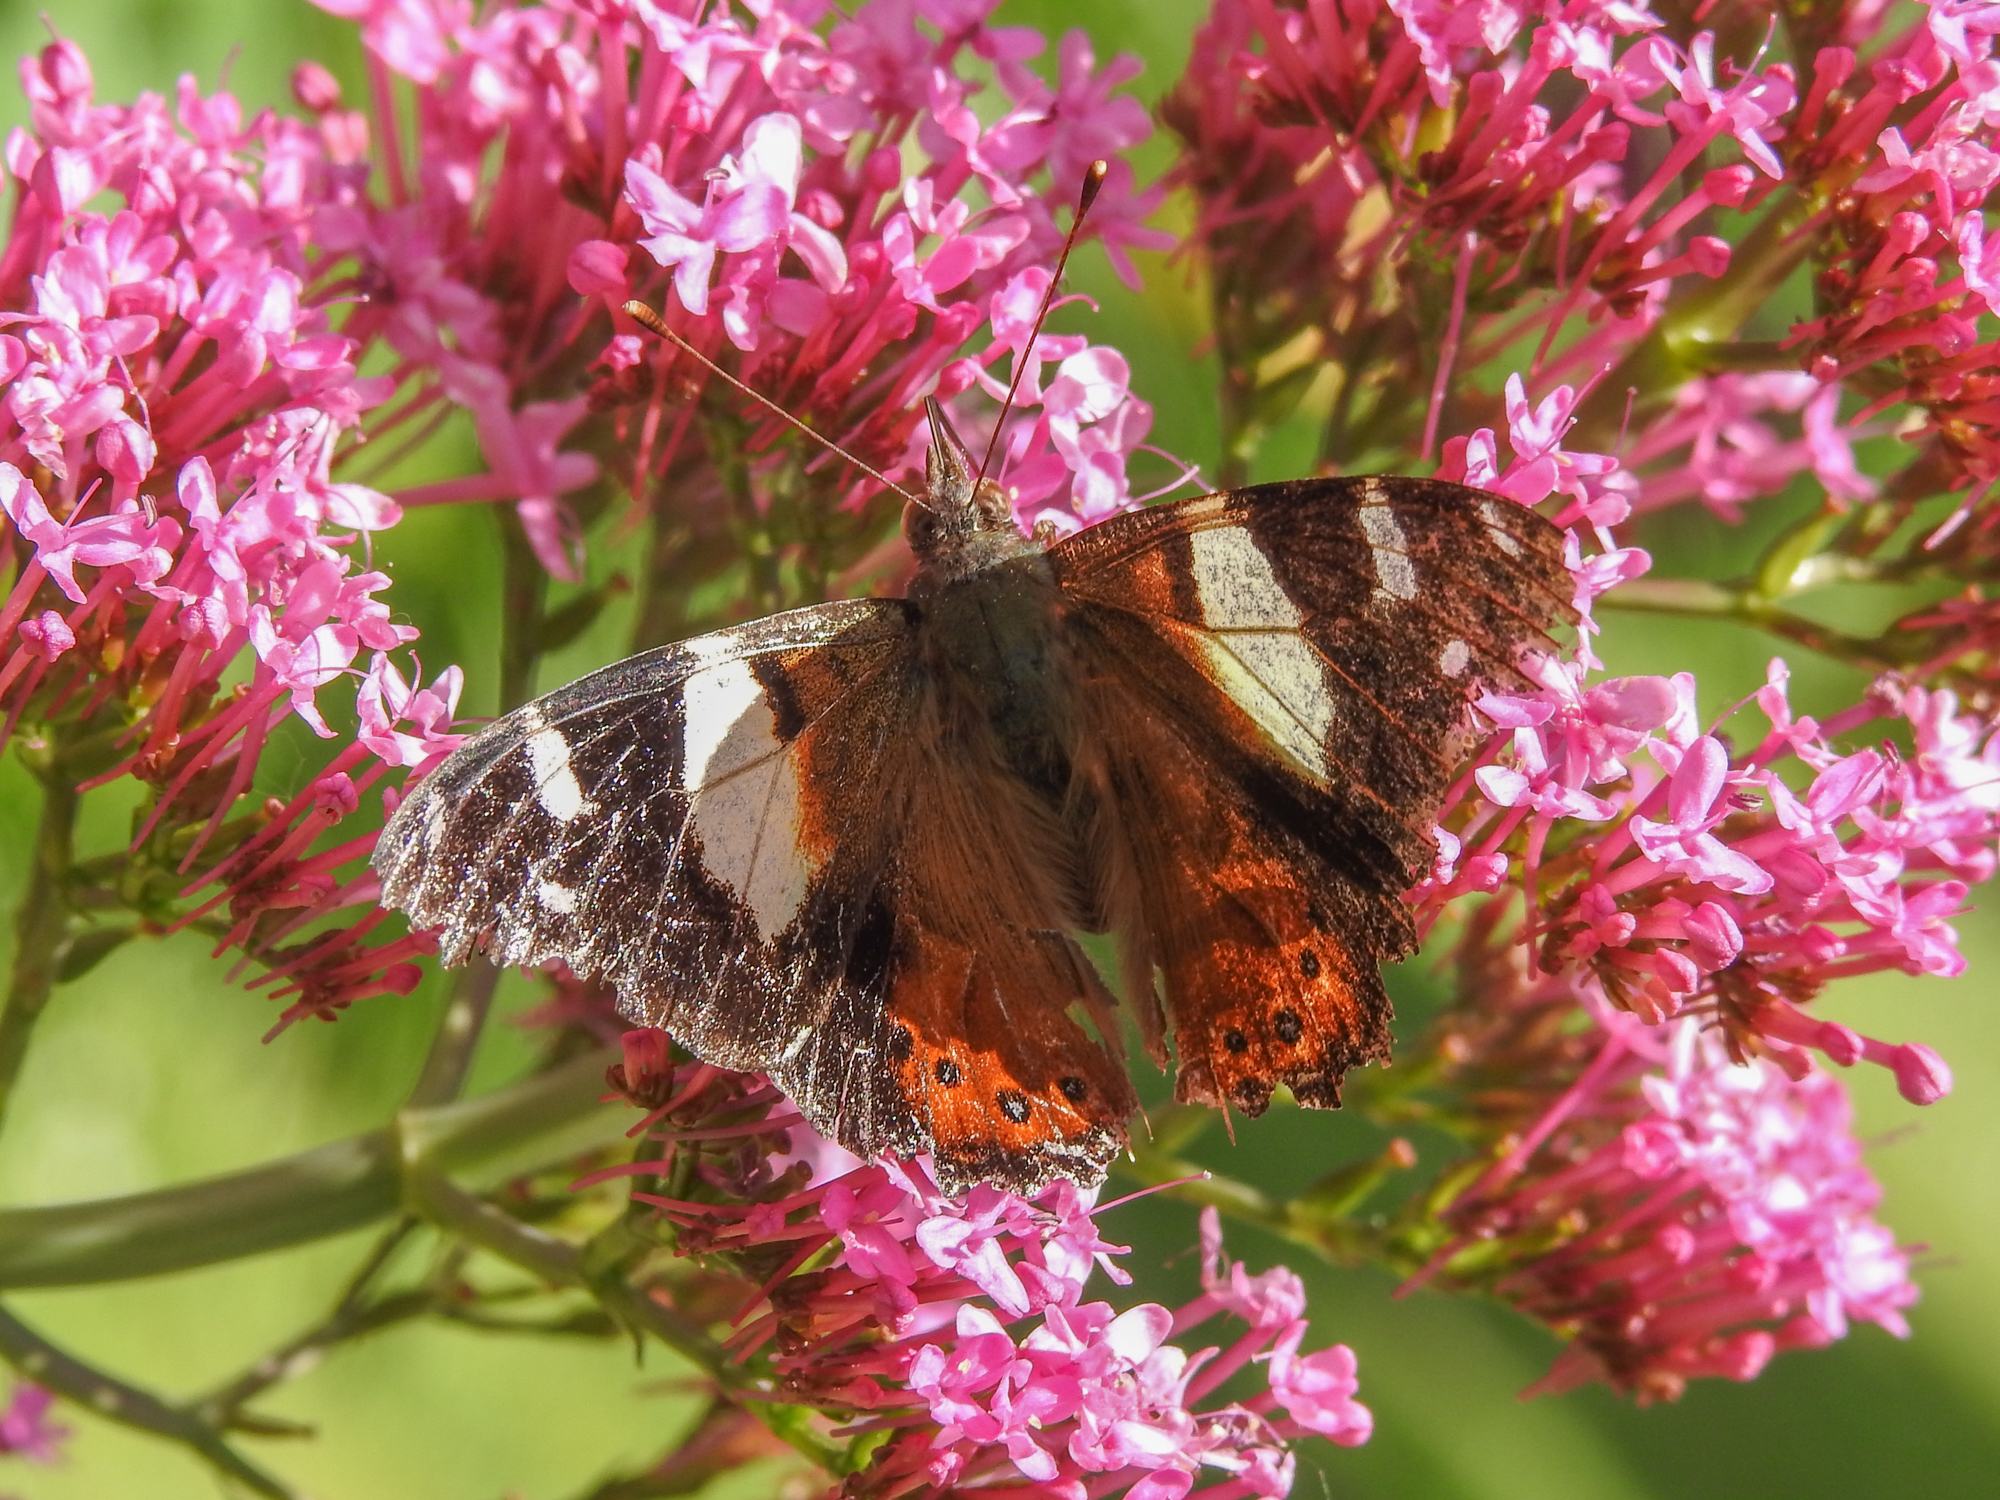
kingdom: Animalia
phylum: Arthropoda
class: Insecta
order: Lepidoptera
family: Nymphalidae
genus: Vanessa
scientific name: Vanessa itea
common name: Yellow admiral
